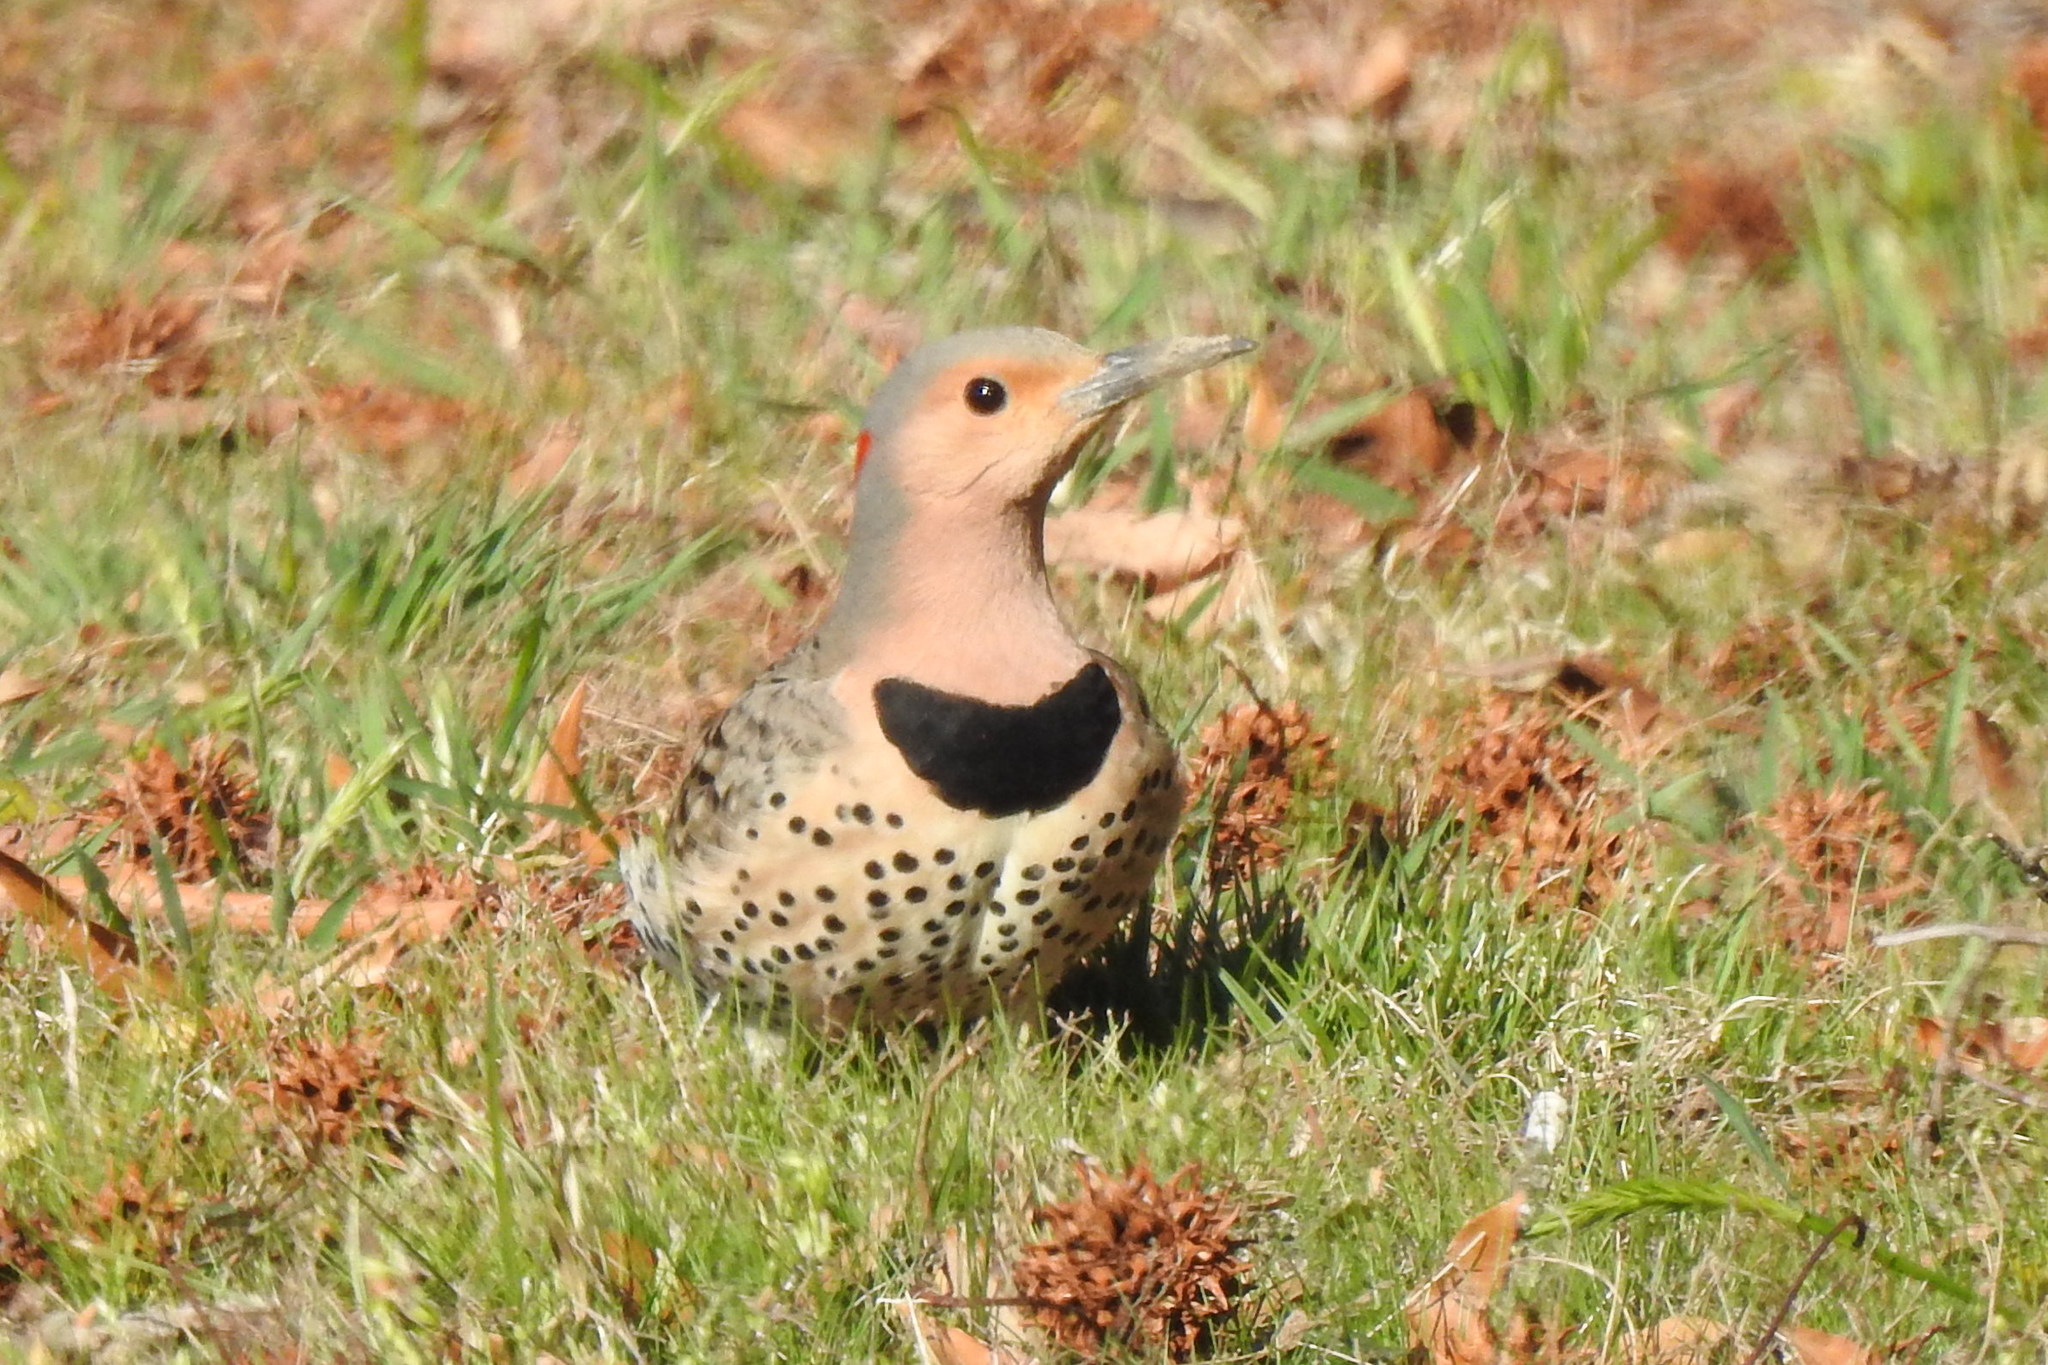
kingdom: Animalia
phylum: Chordata
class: Aves
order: Piciformes
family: Picidae
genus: Colaptes
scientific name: Colaptes auratus
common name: Northern flicker
